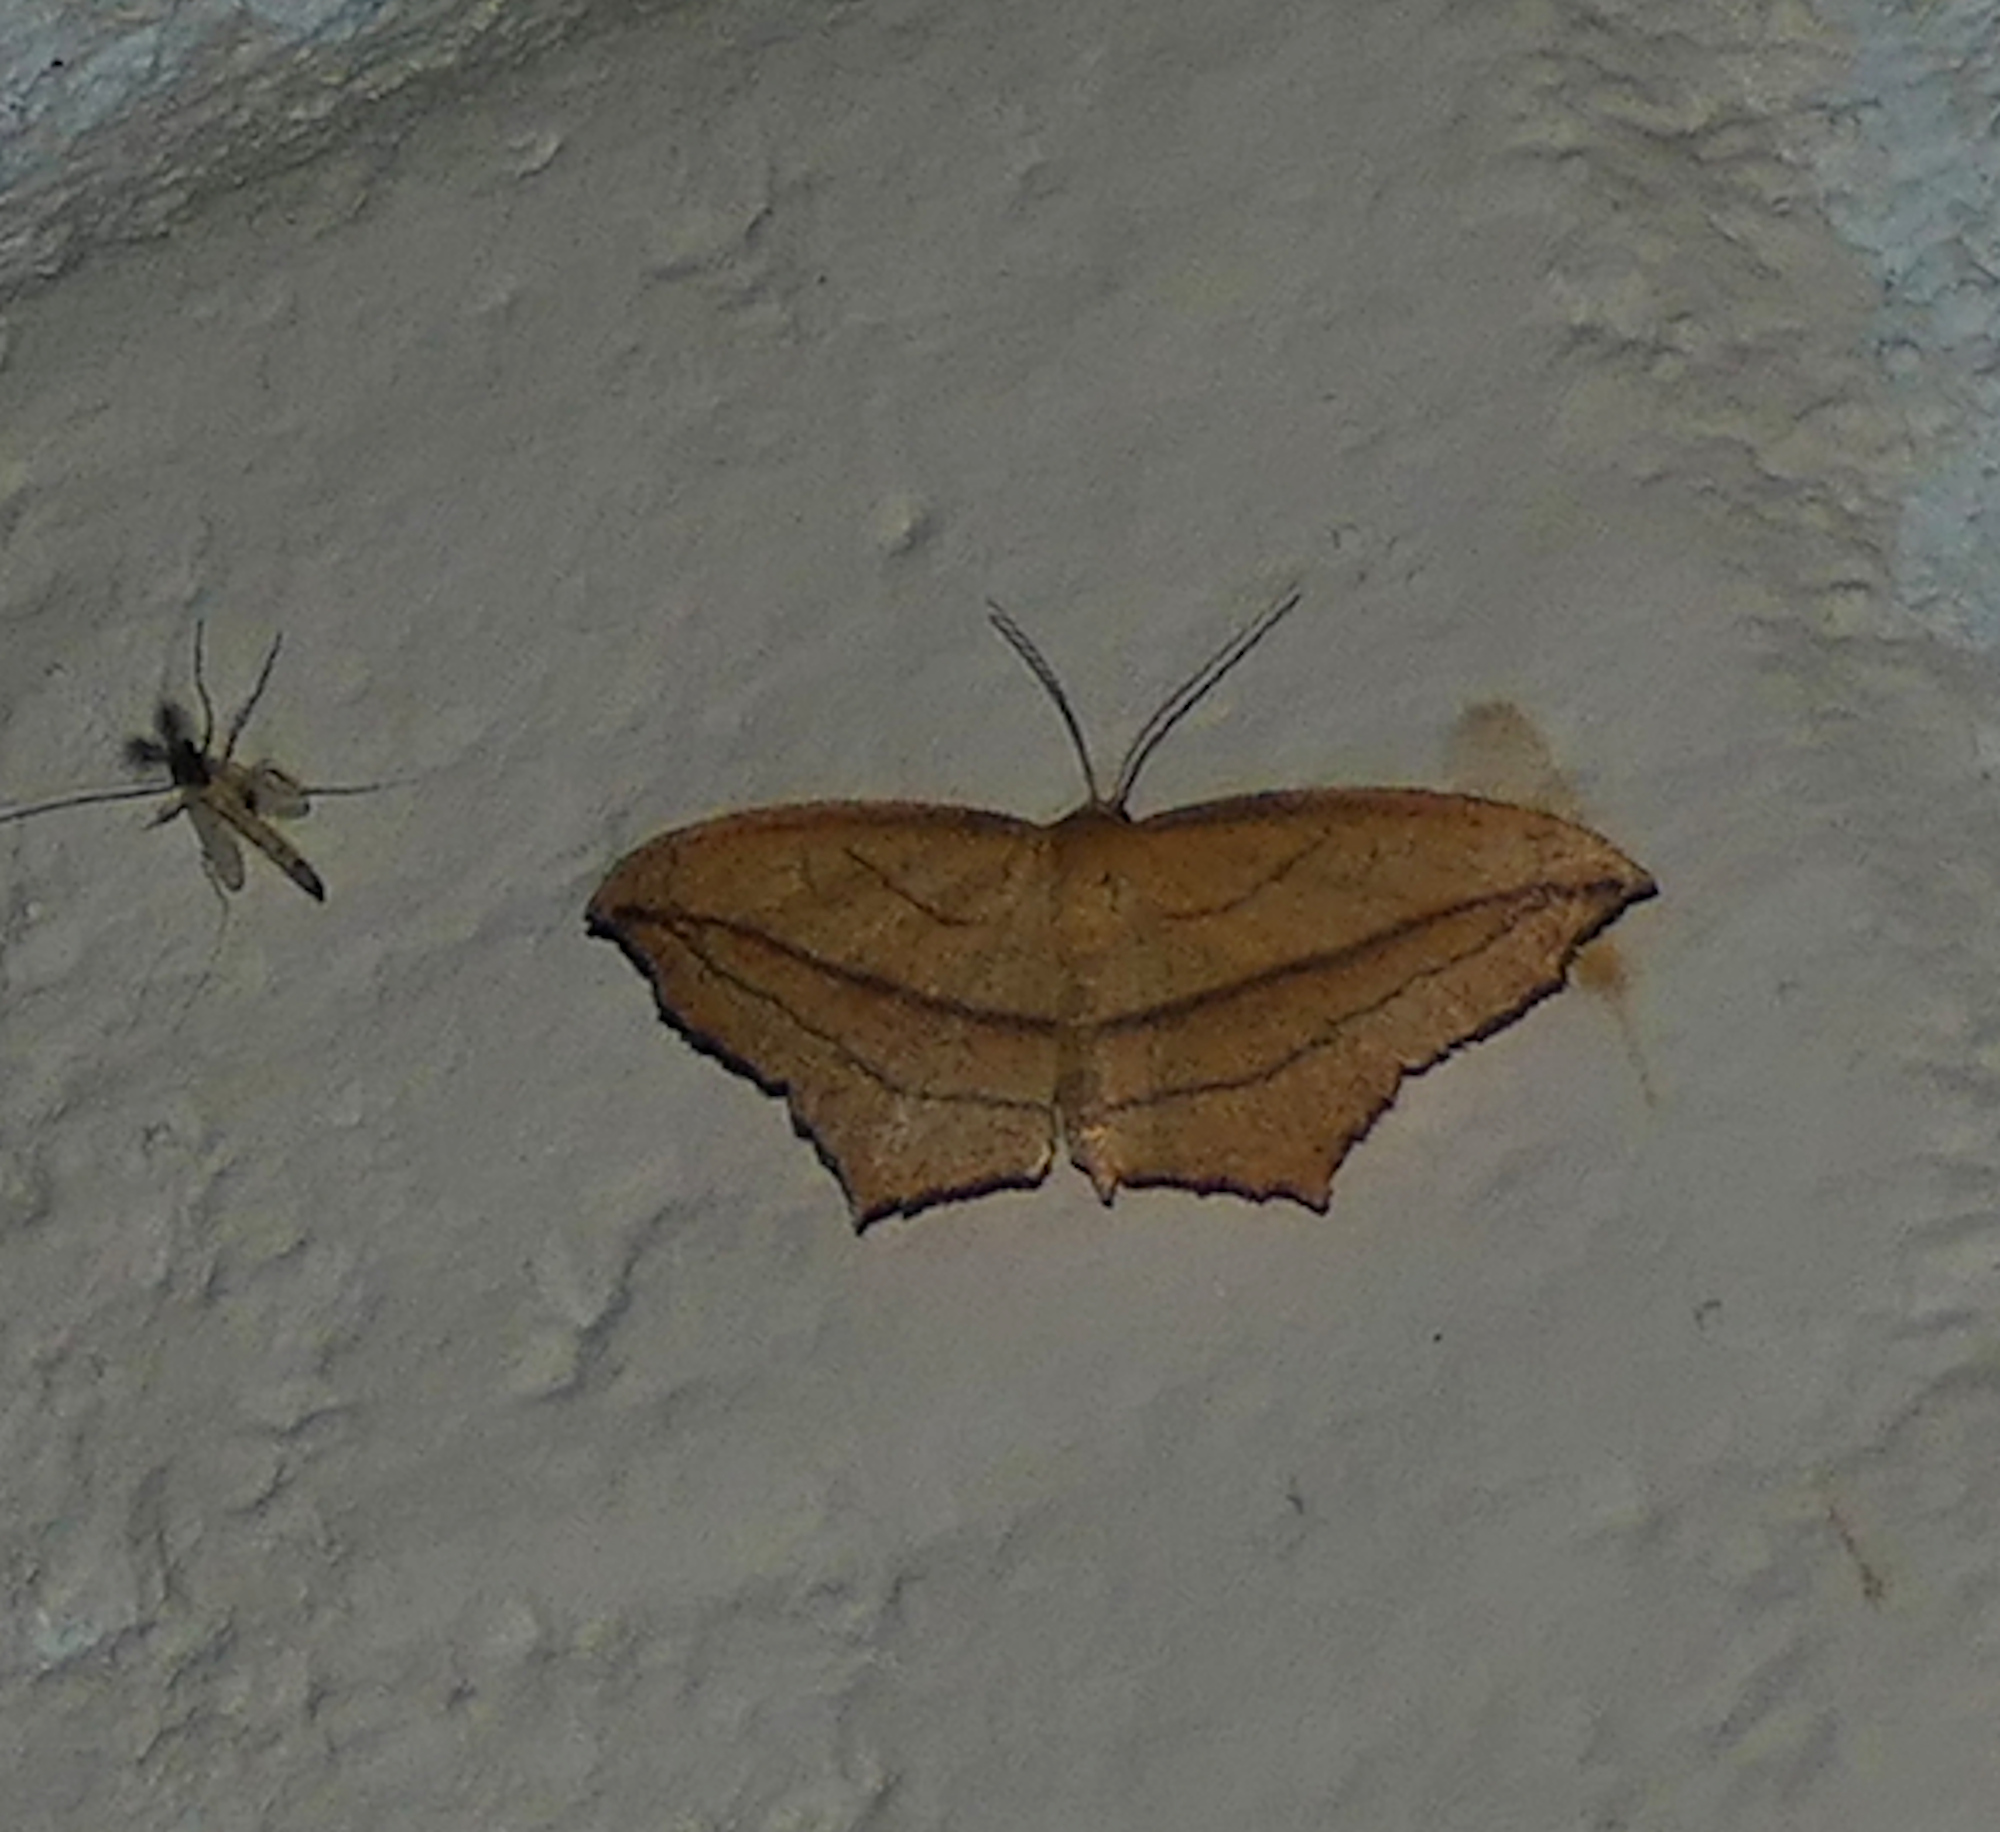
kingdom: Animalia
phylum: Arthropoda
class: Insecta
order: Lepidoptera
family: Geometridae
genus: Timandra
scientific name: Timandra amaturaria
